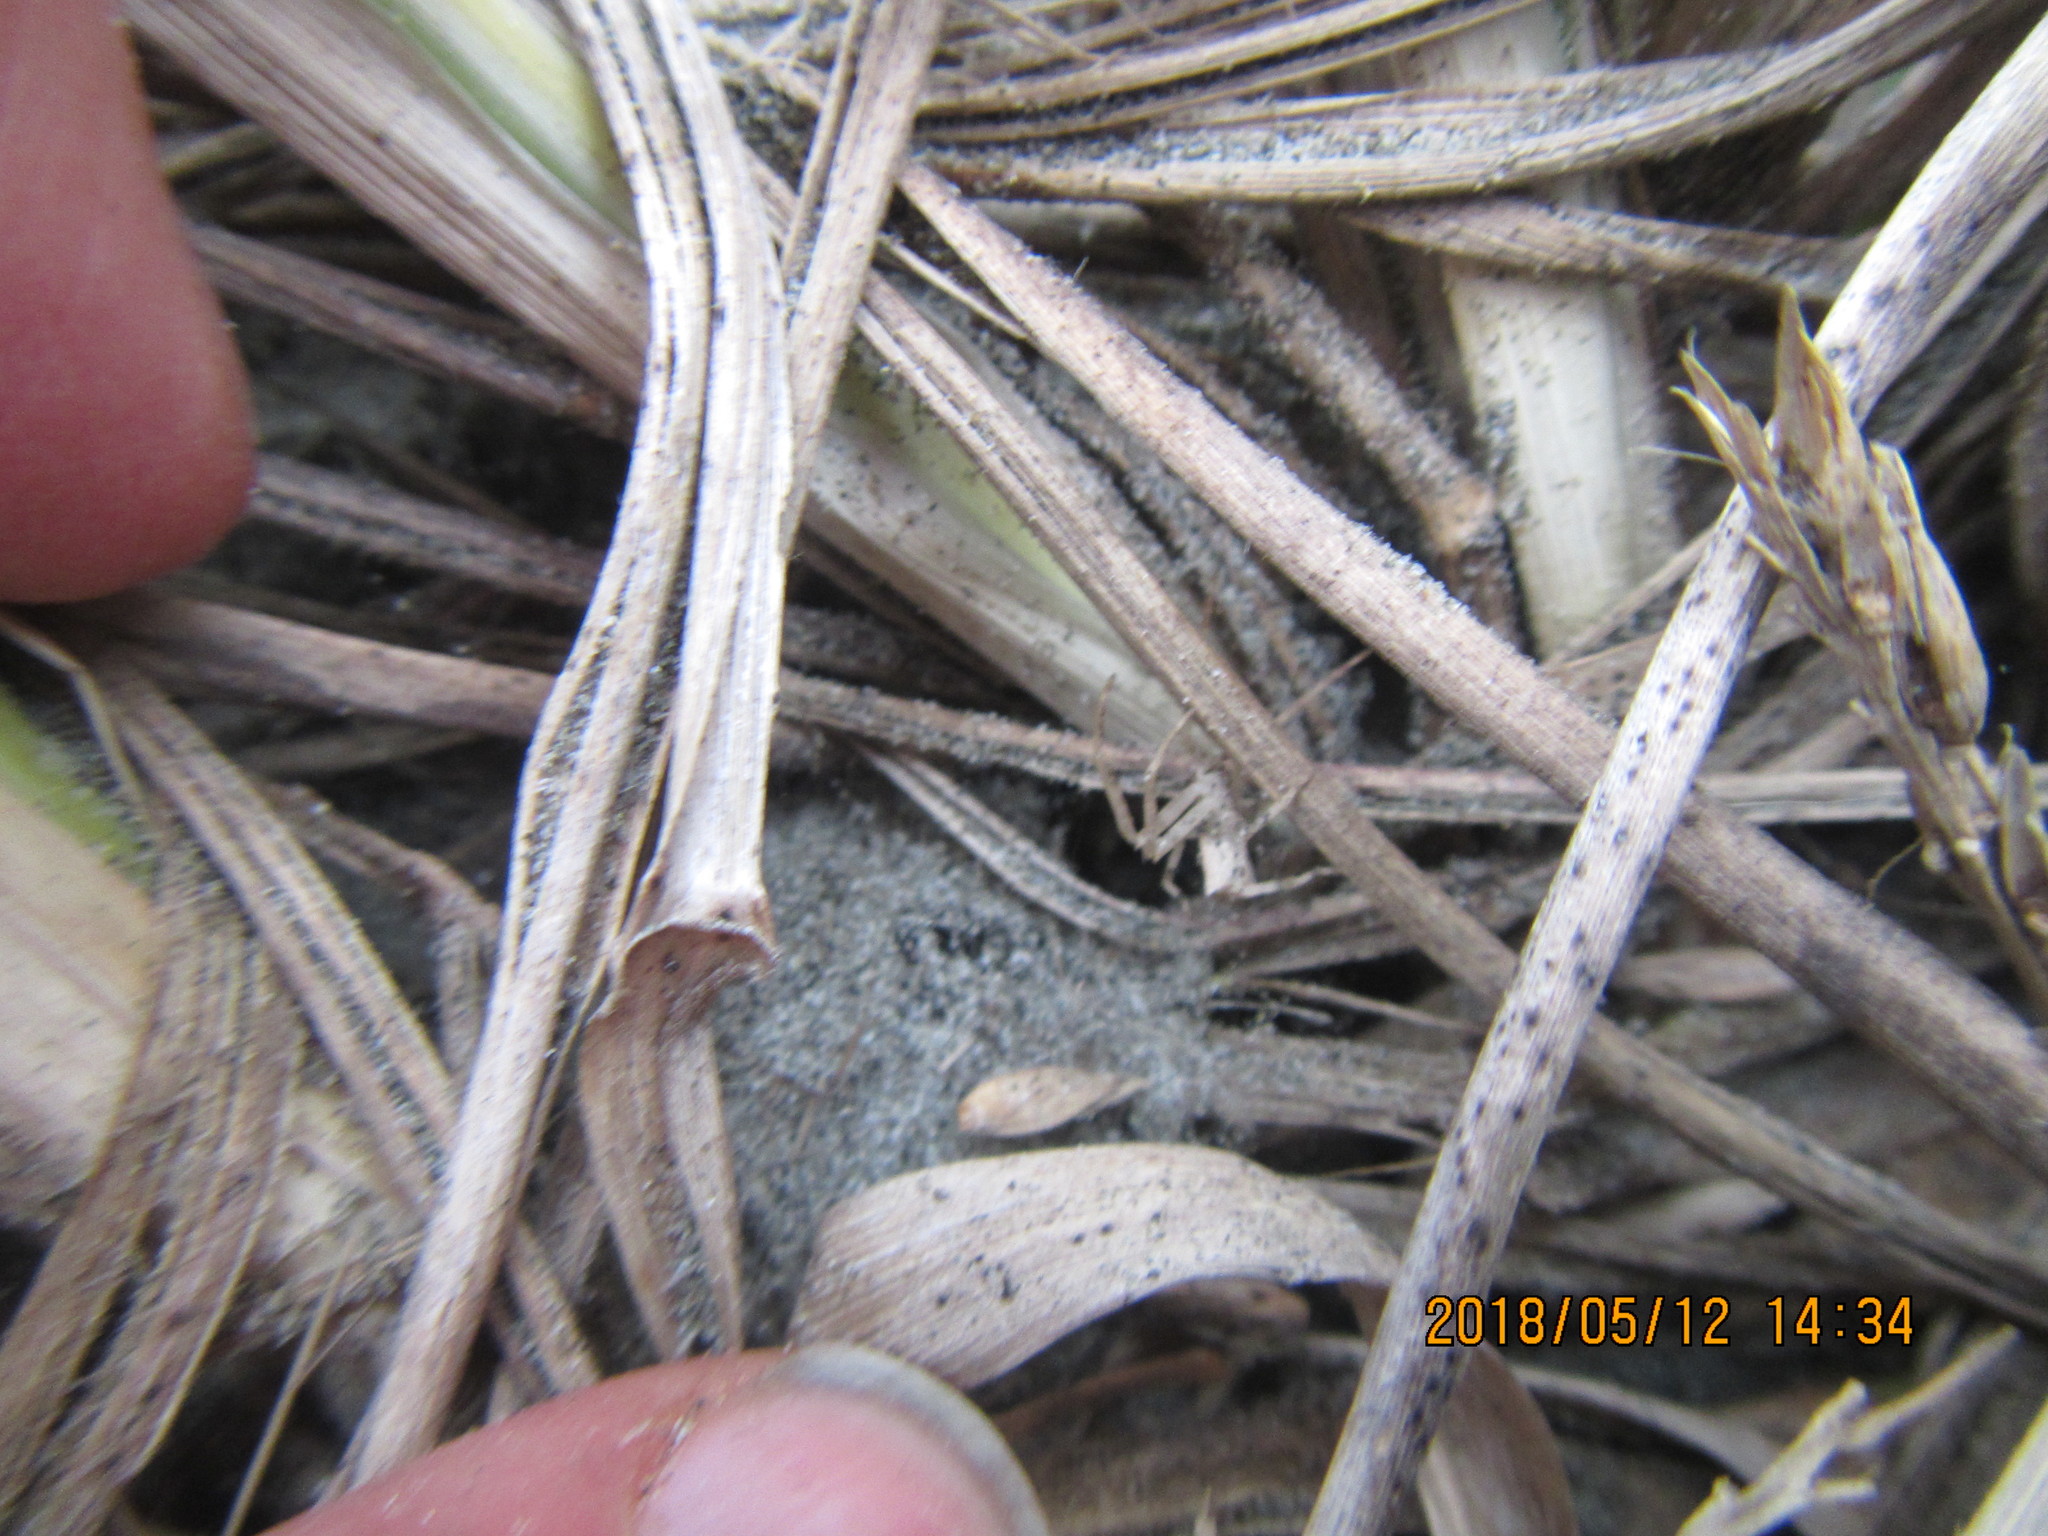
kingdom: Animalia
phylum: Arthropoda
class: Arachnida
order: Araneae
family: Thomisidae
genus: Sidymella
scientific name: Sidymella trapezia
